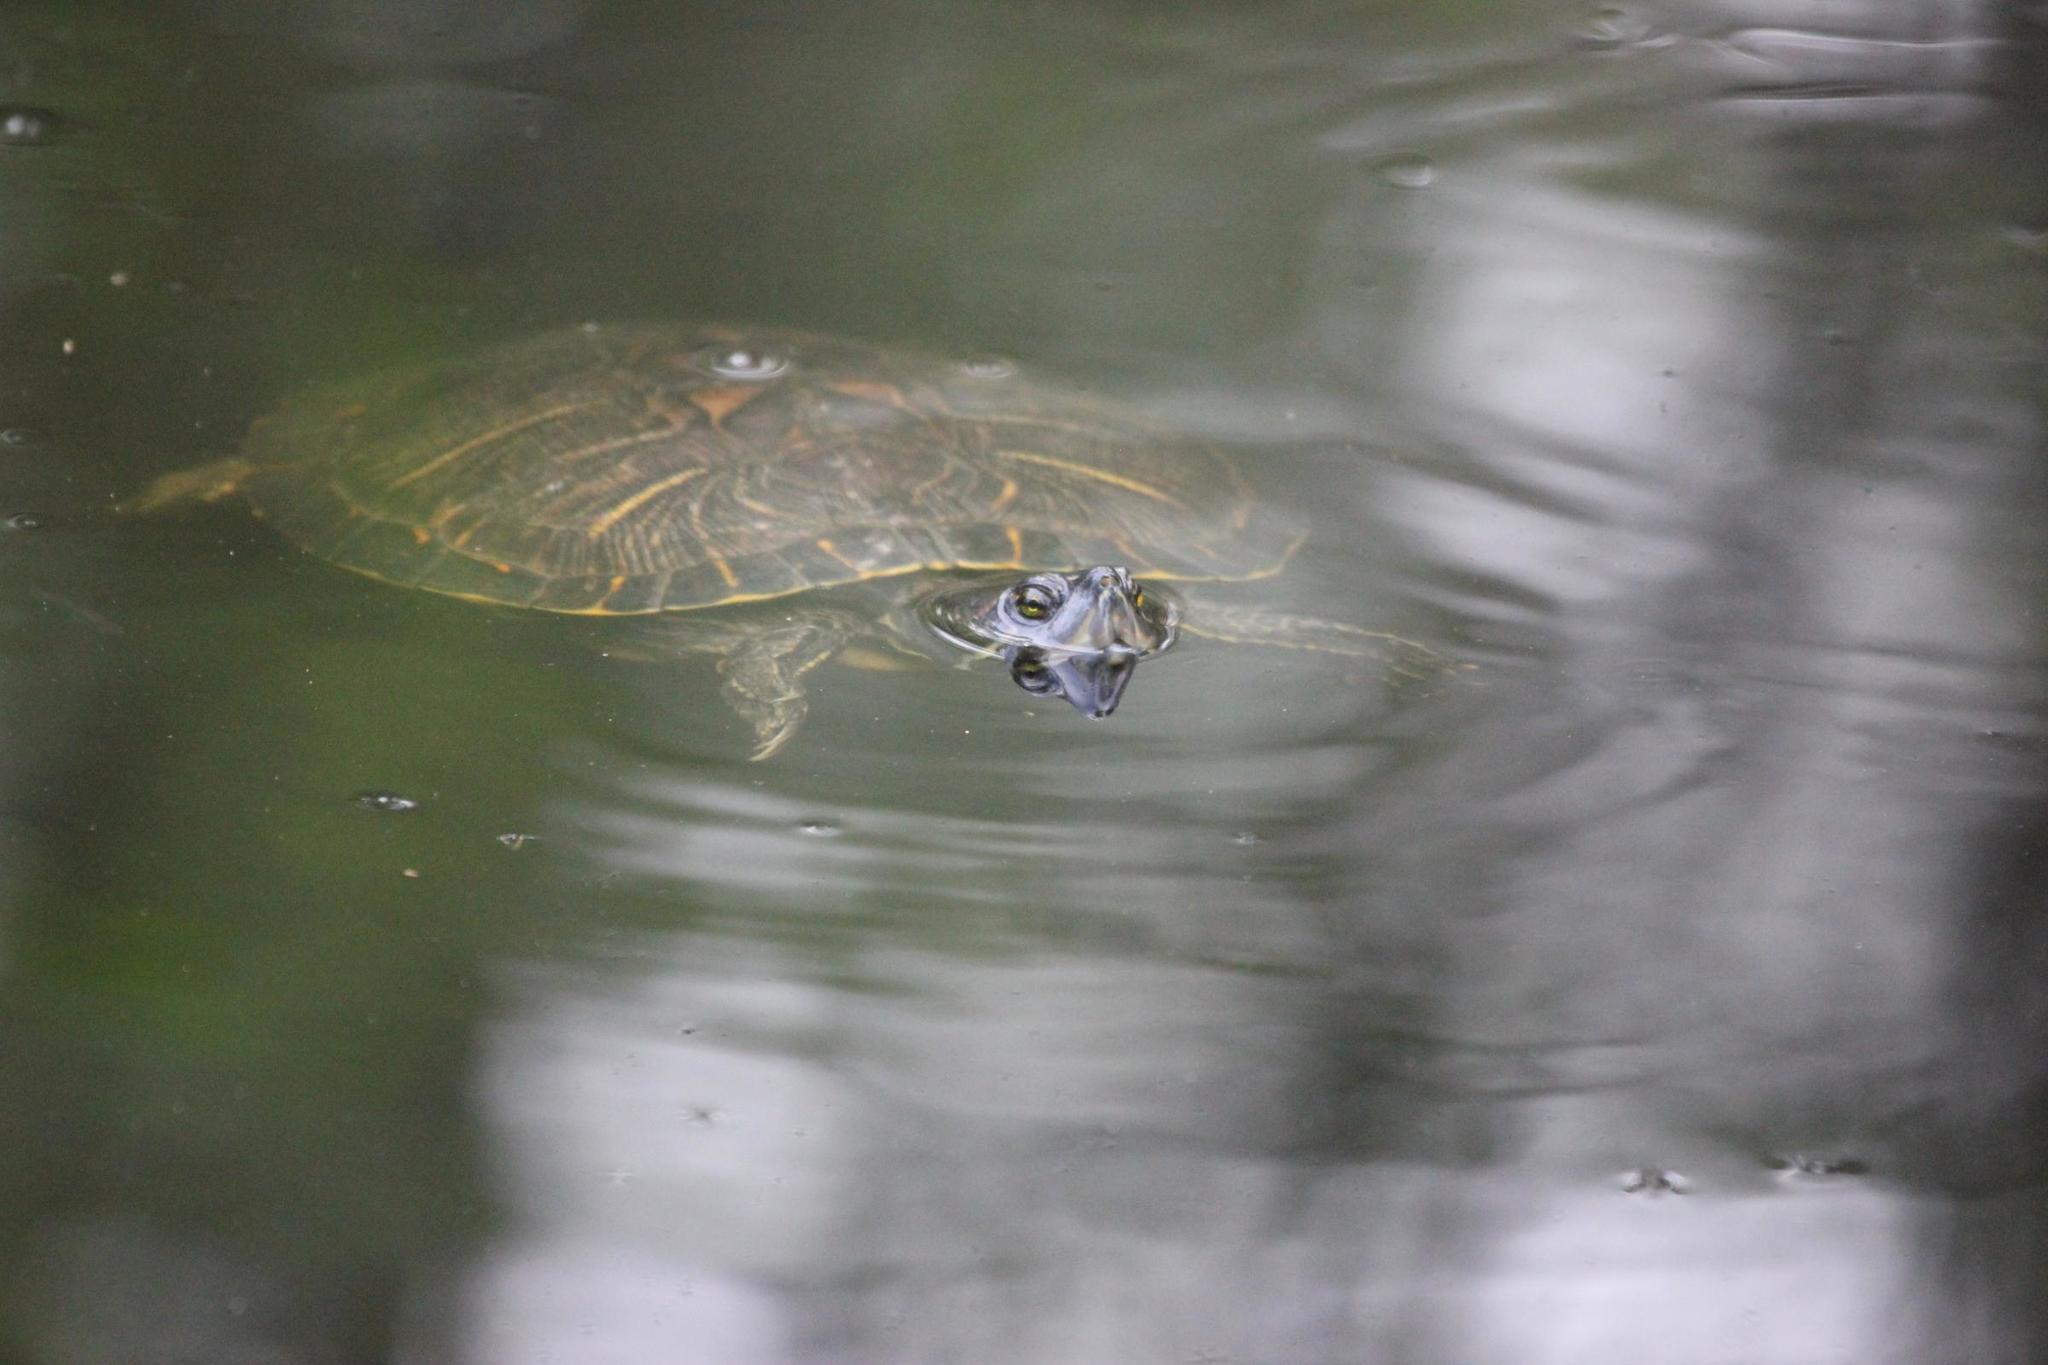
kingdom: Animalia
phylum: Chordata
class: Testudines
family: Emydidae
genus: Trachemys
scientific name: Trachemys scripta
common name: Slider
